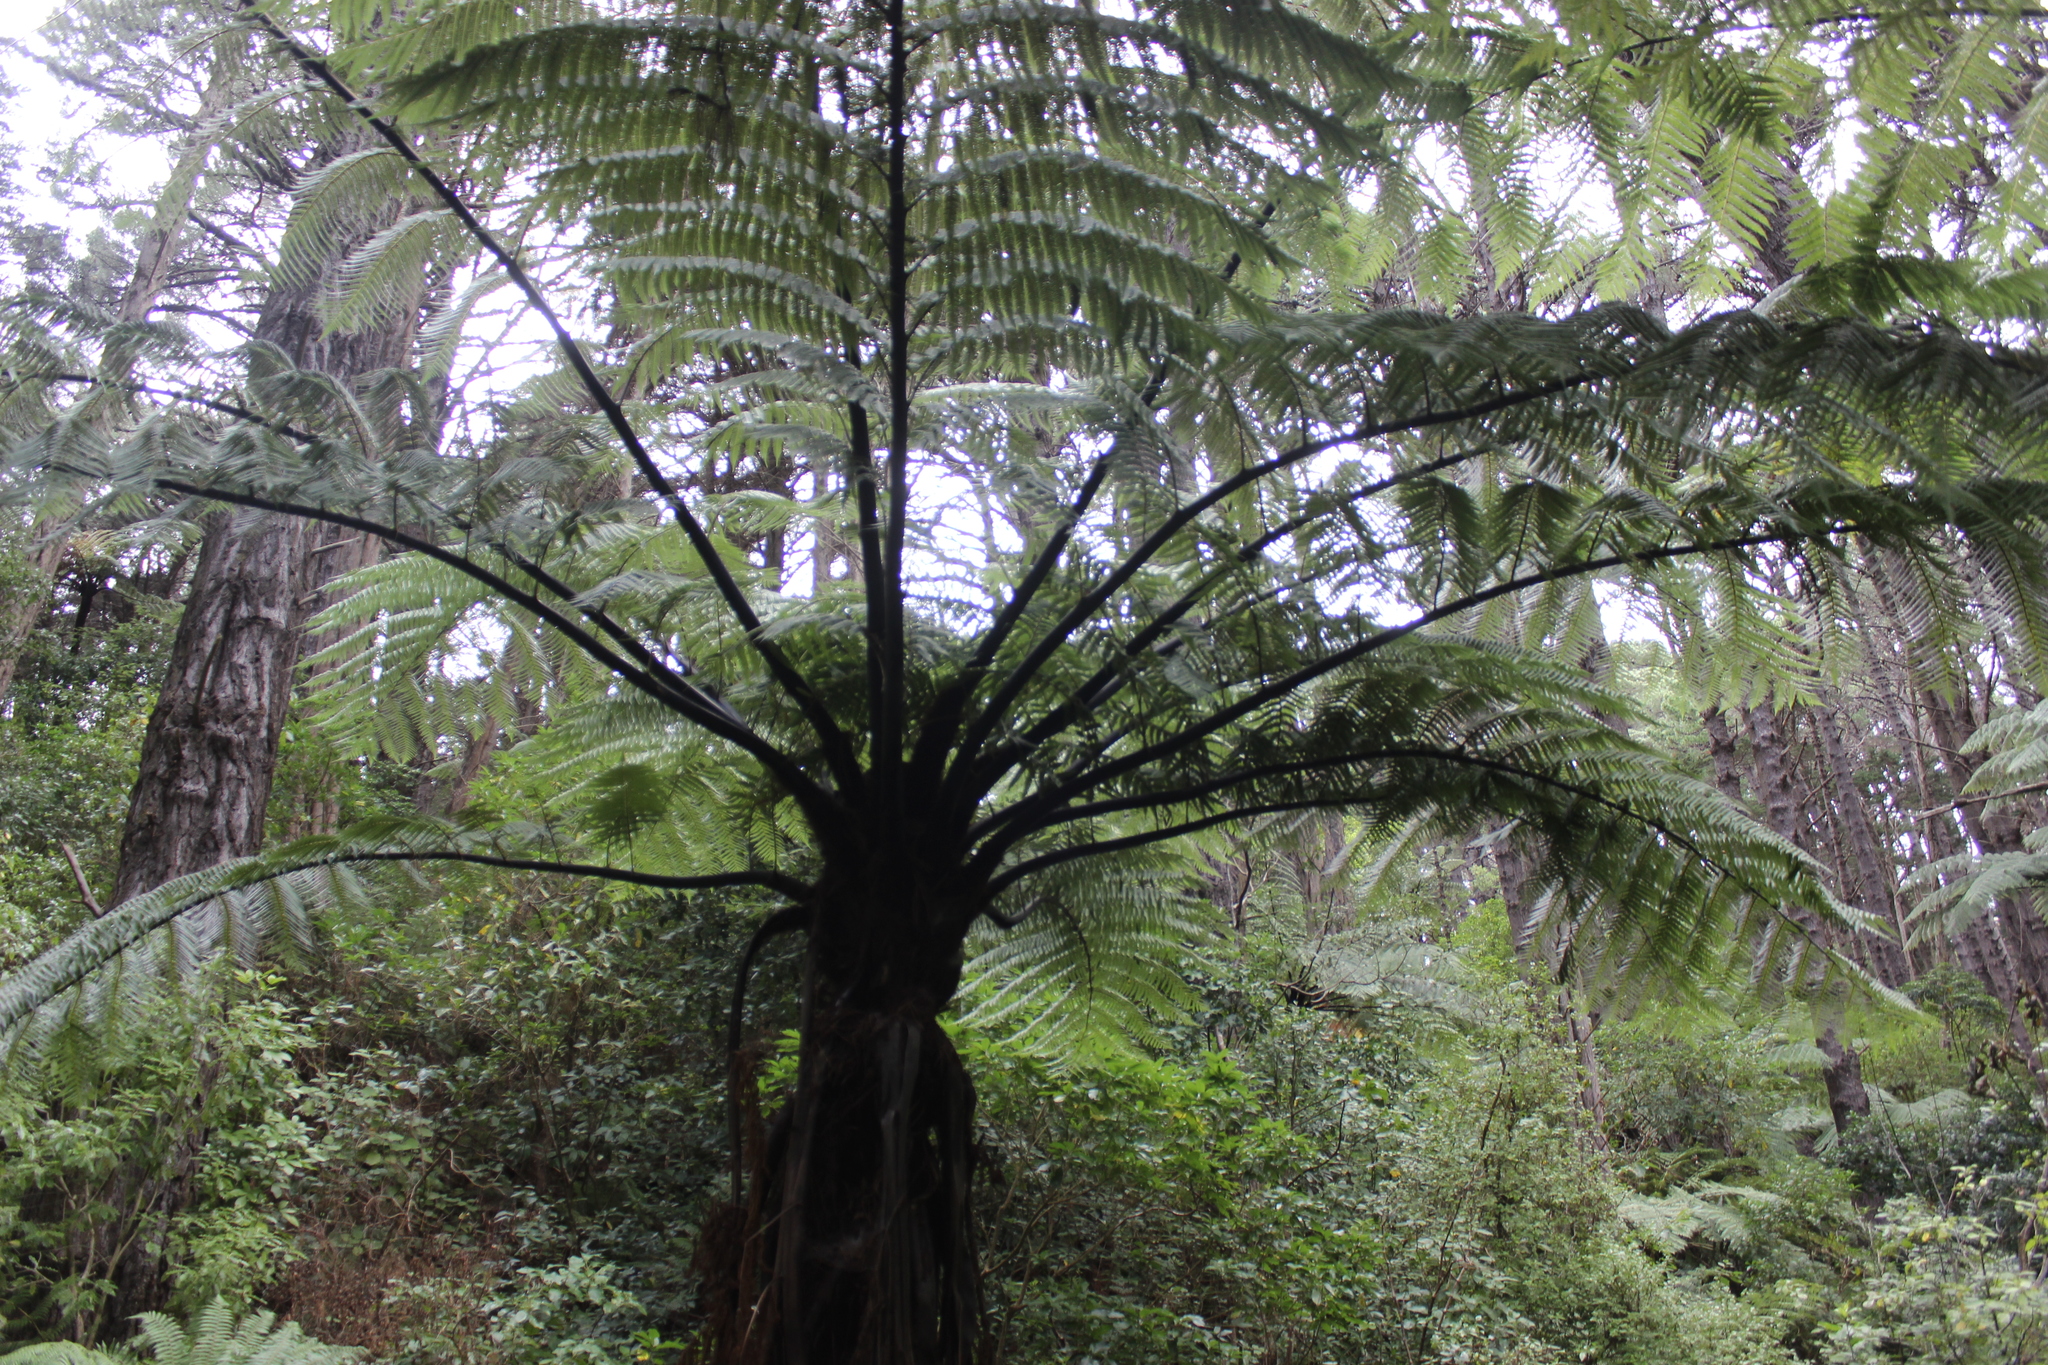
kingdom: Plantae
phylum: Tracheophyta
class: Polypodiopsida
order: Cyatheales
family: Cyatheaceae
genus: Sphaeropteris
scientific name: Sphaeropteris medullaris
